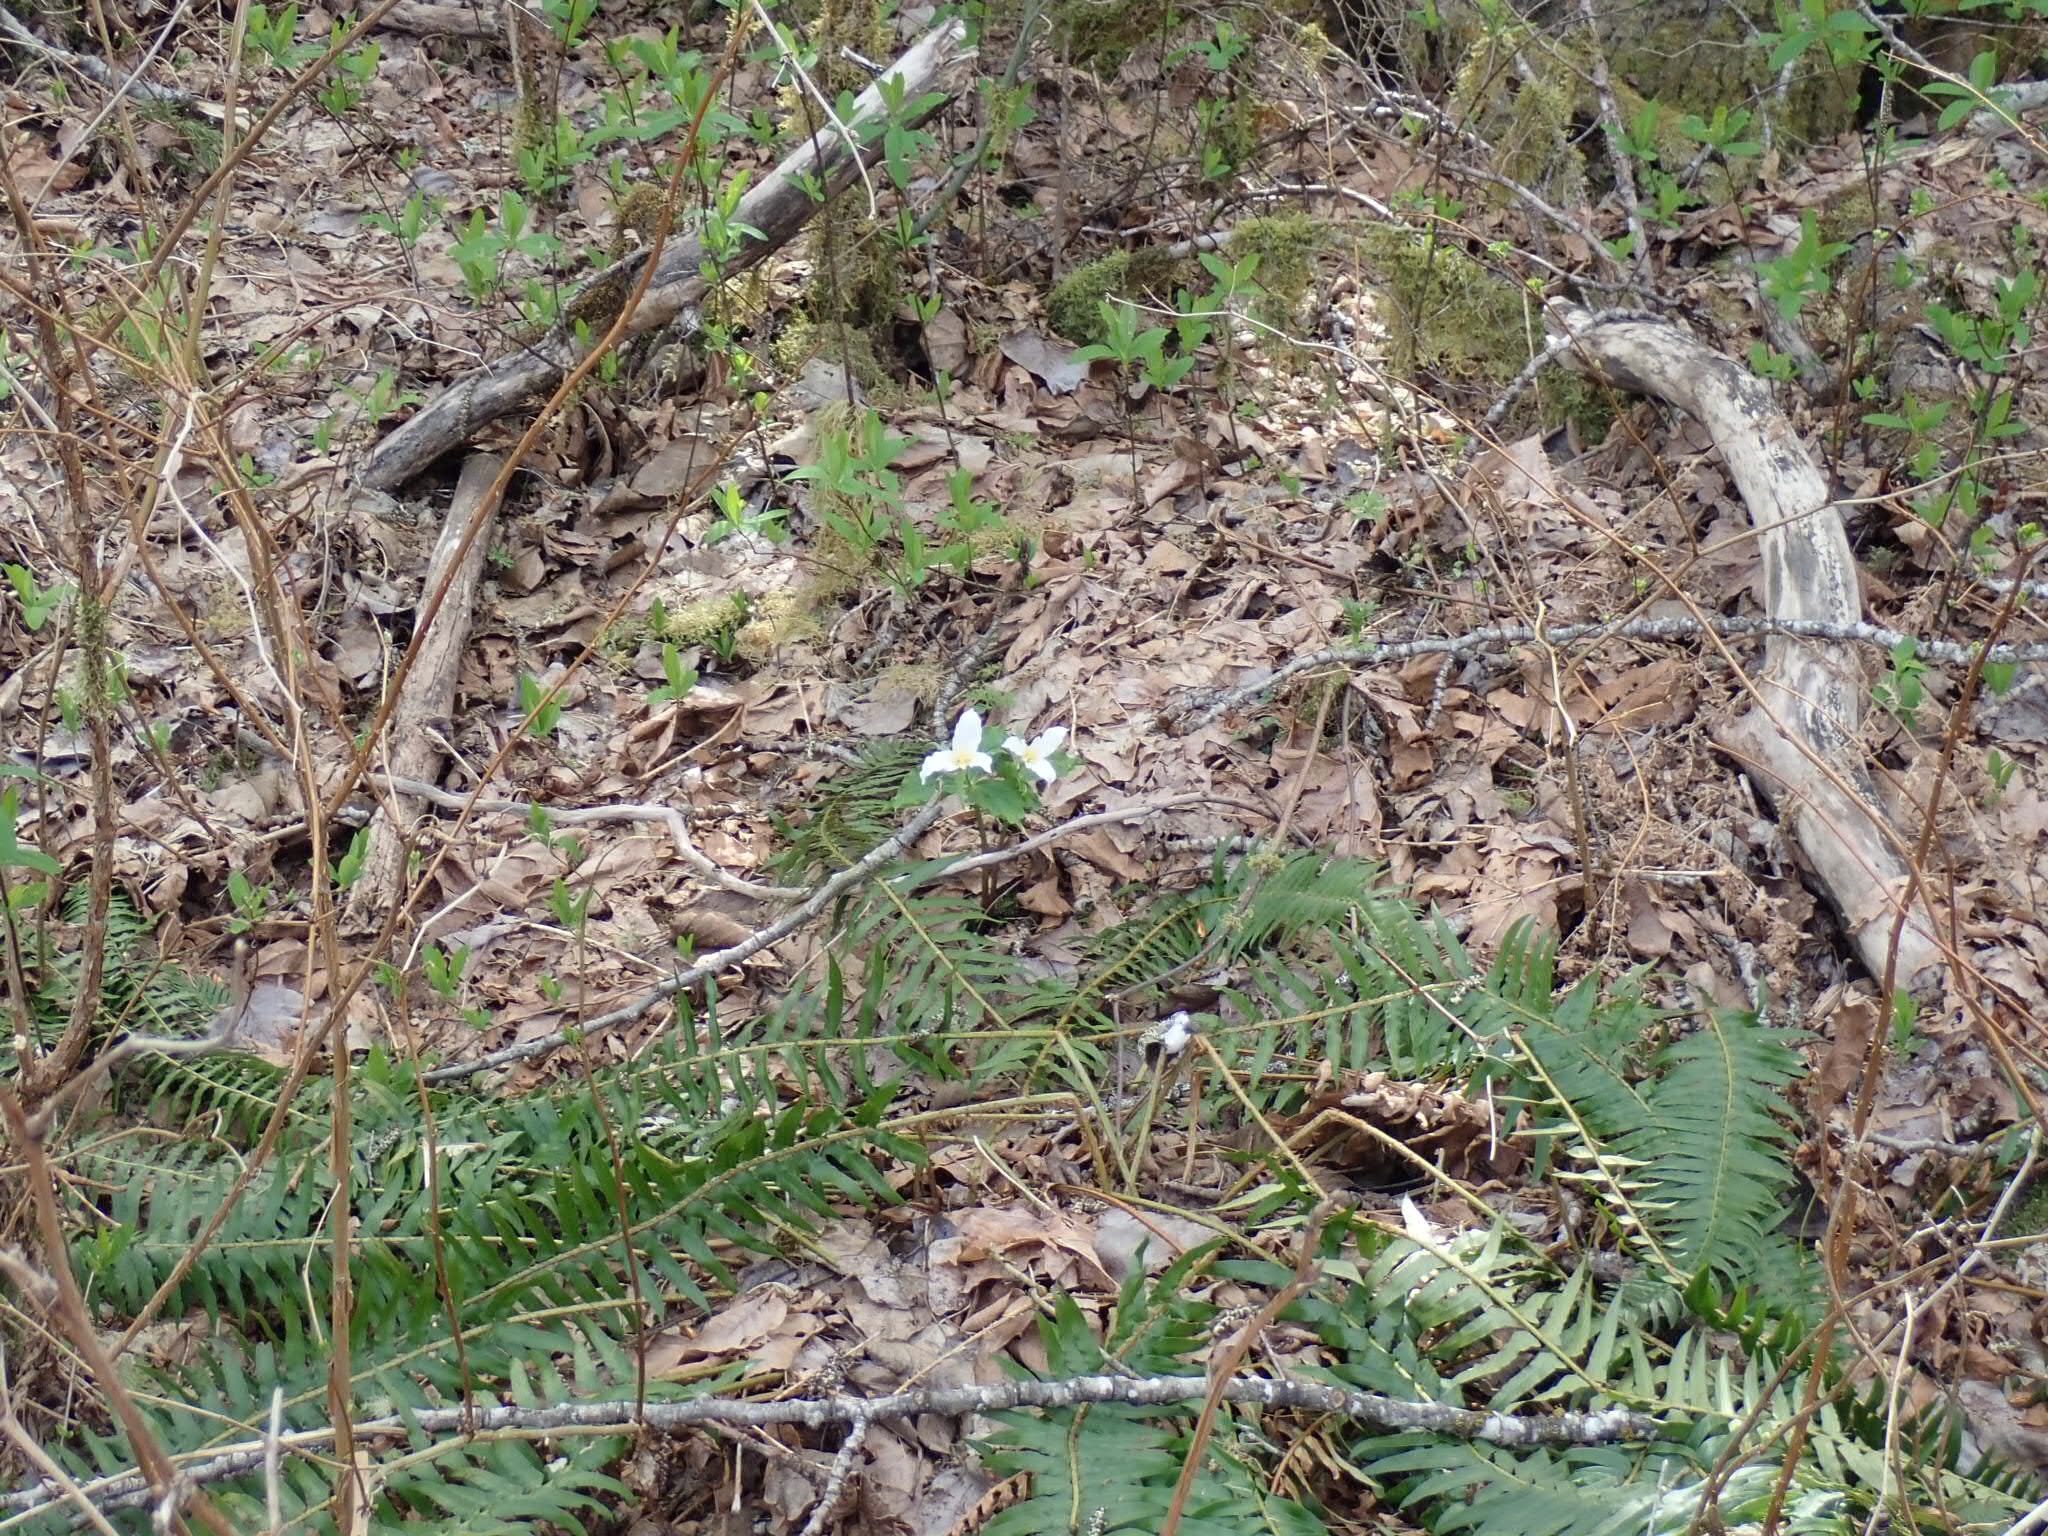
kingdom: Plantae
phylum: Tracheophyta
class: Liliopsida
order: Liliales
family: Melanthiaceae
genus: Trillium
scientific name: Trillium ovatum
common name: Pacific trillium
